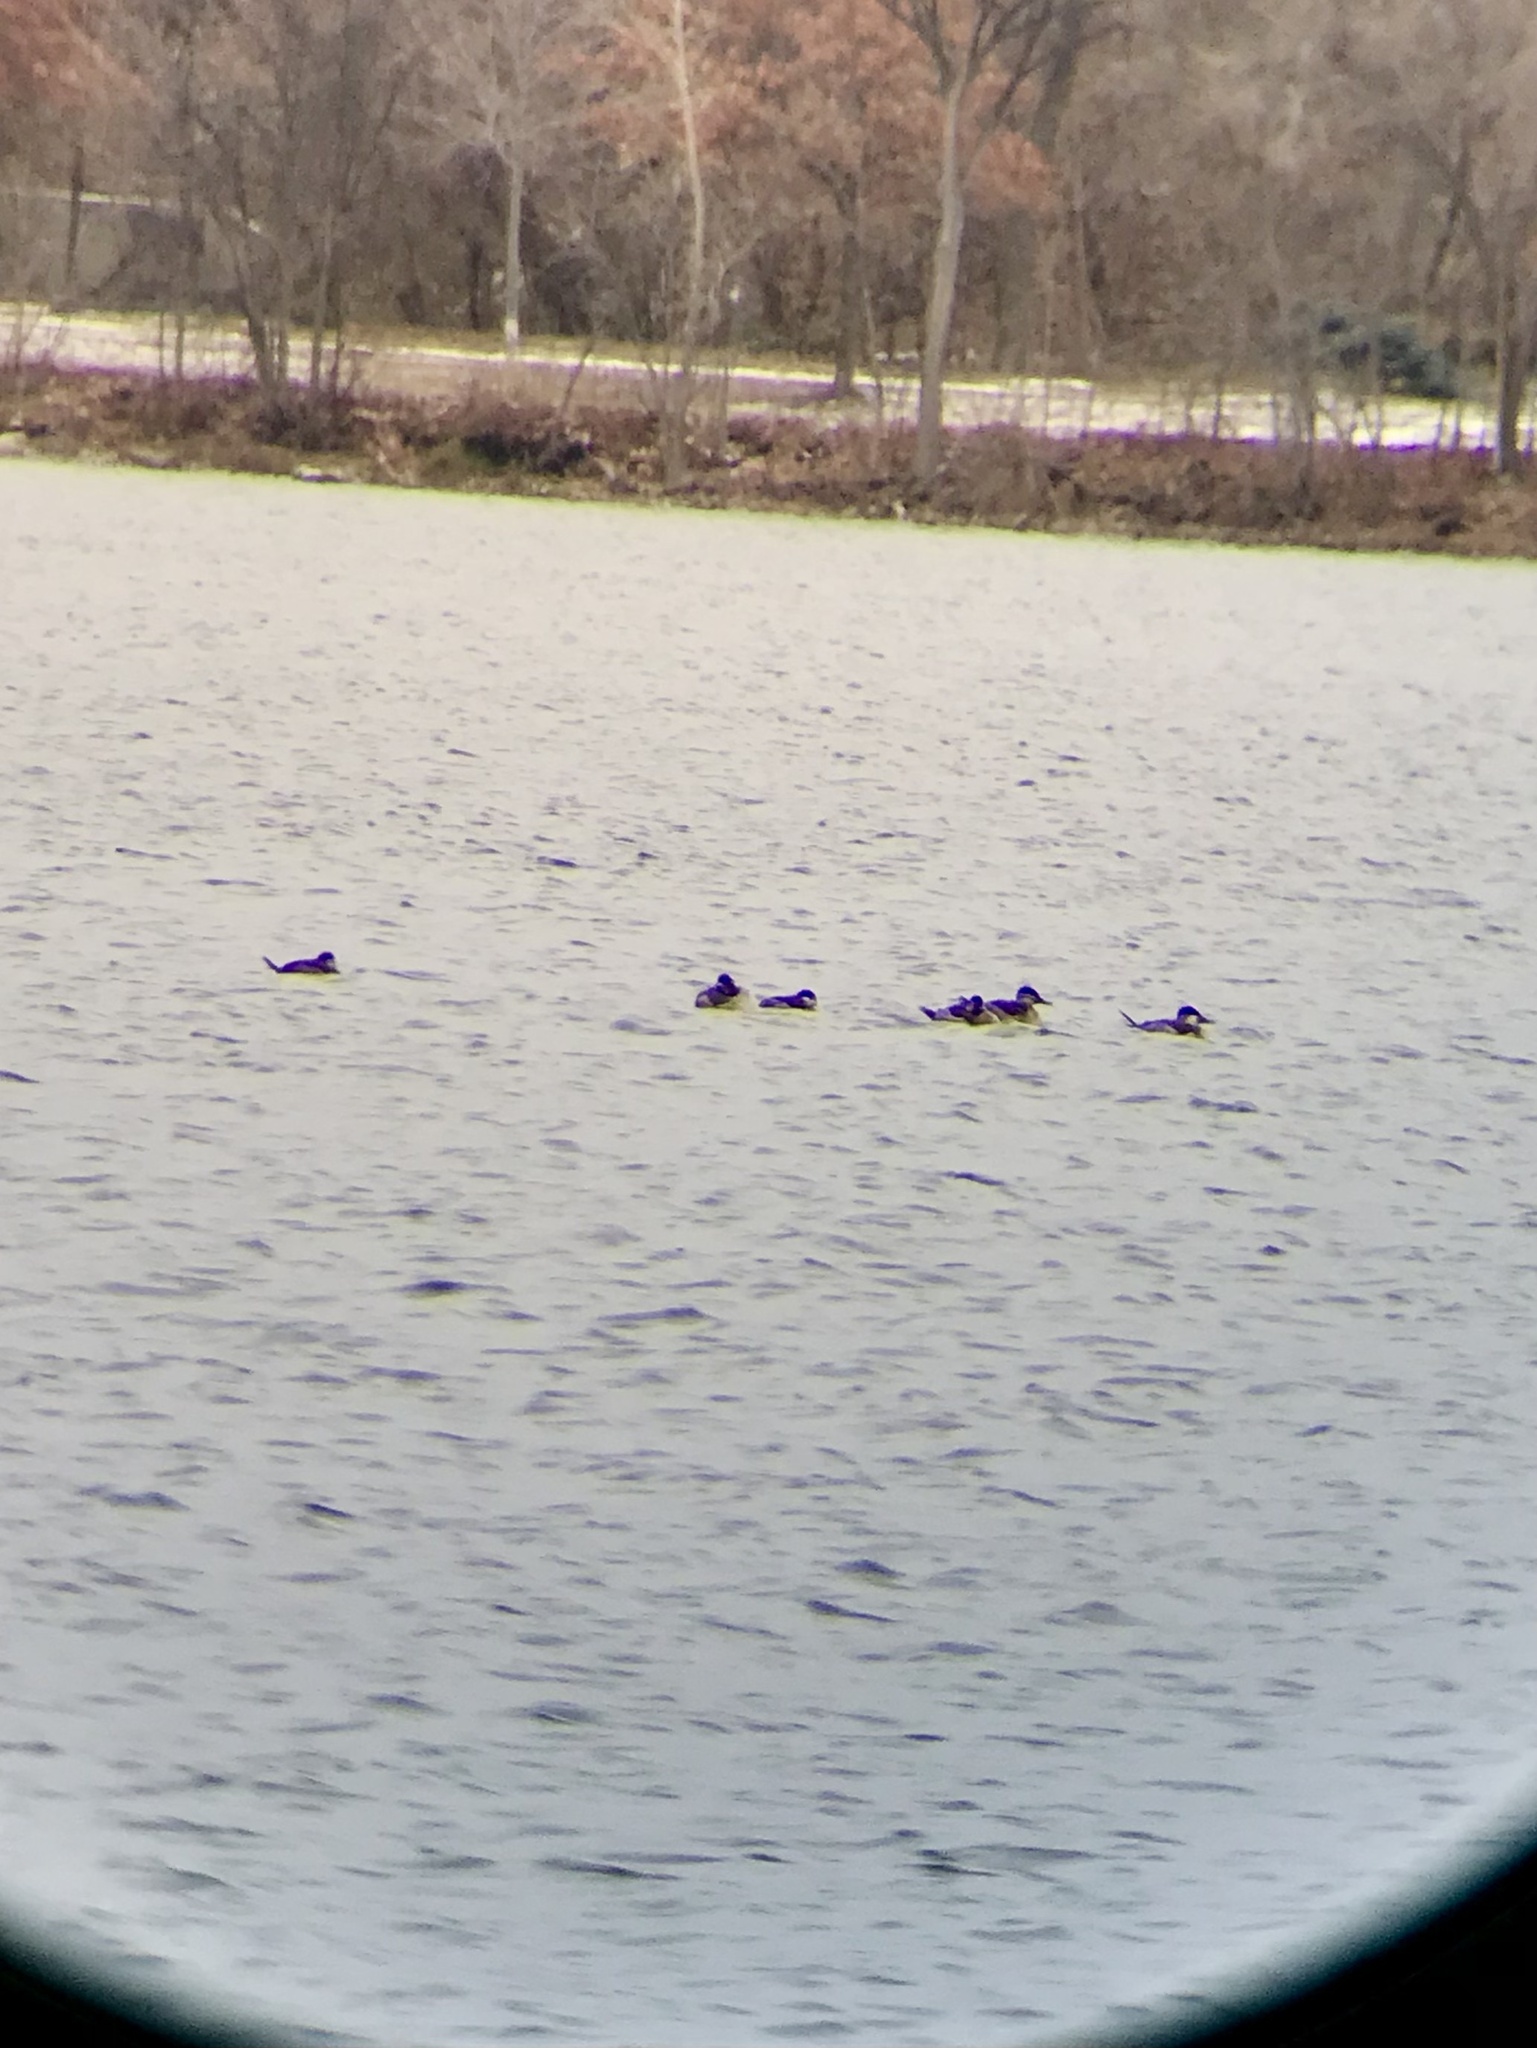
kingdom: Animalia
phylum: Chordata
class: Aves
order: Anseriformes
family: Anatidae
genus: Oxyura
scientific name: Oxyura jamaicensis
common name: Ruddy duck
